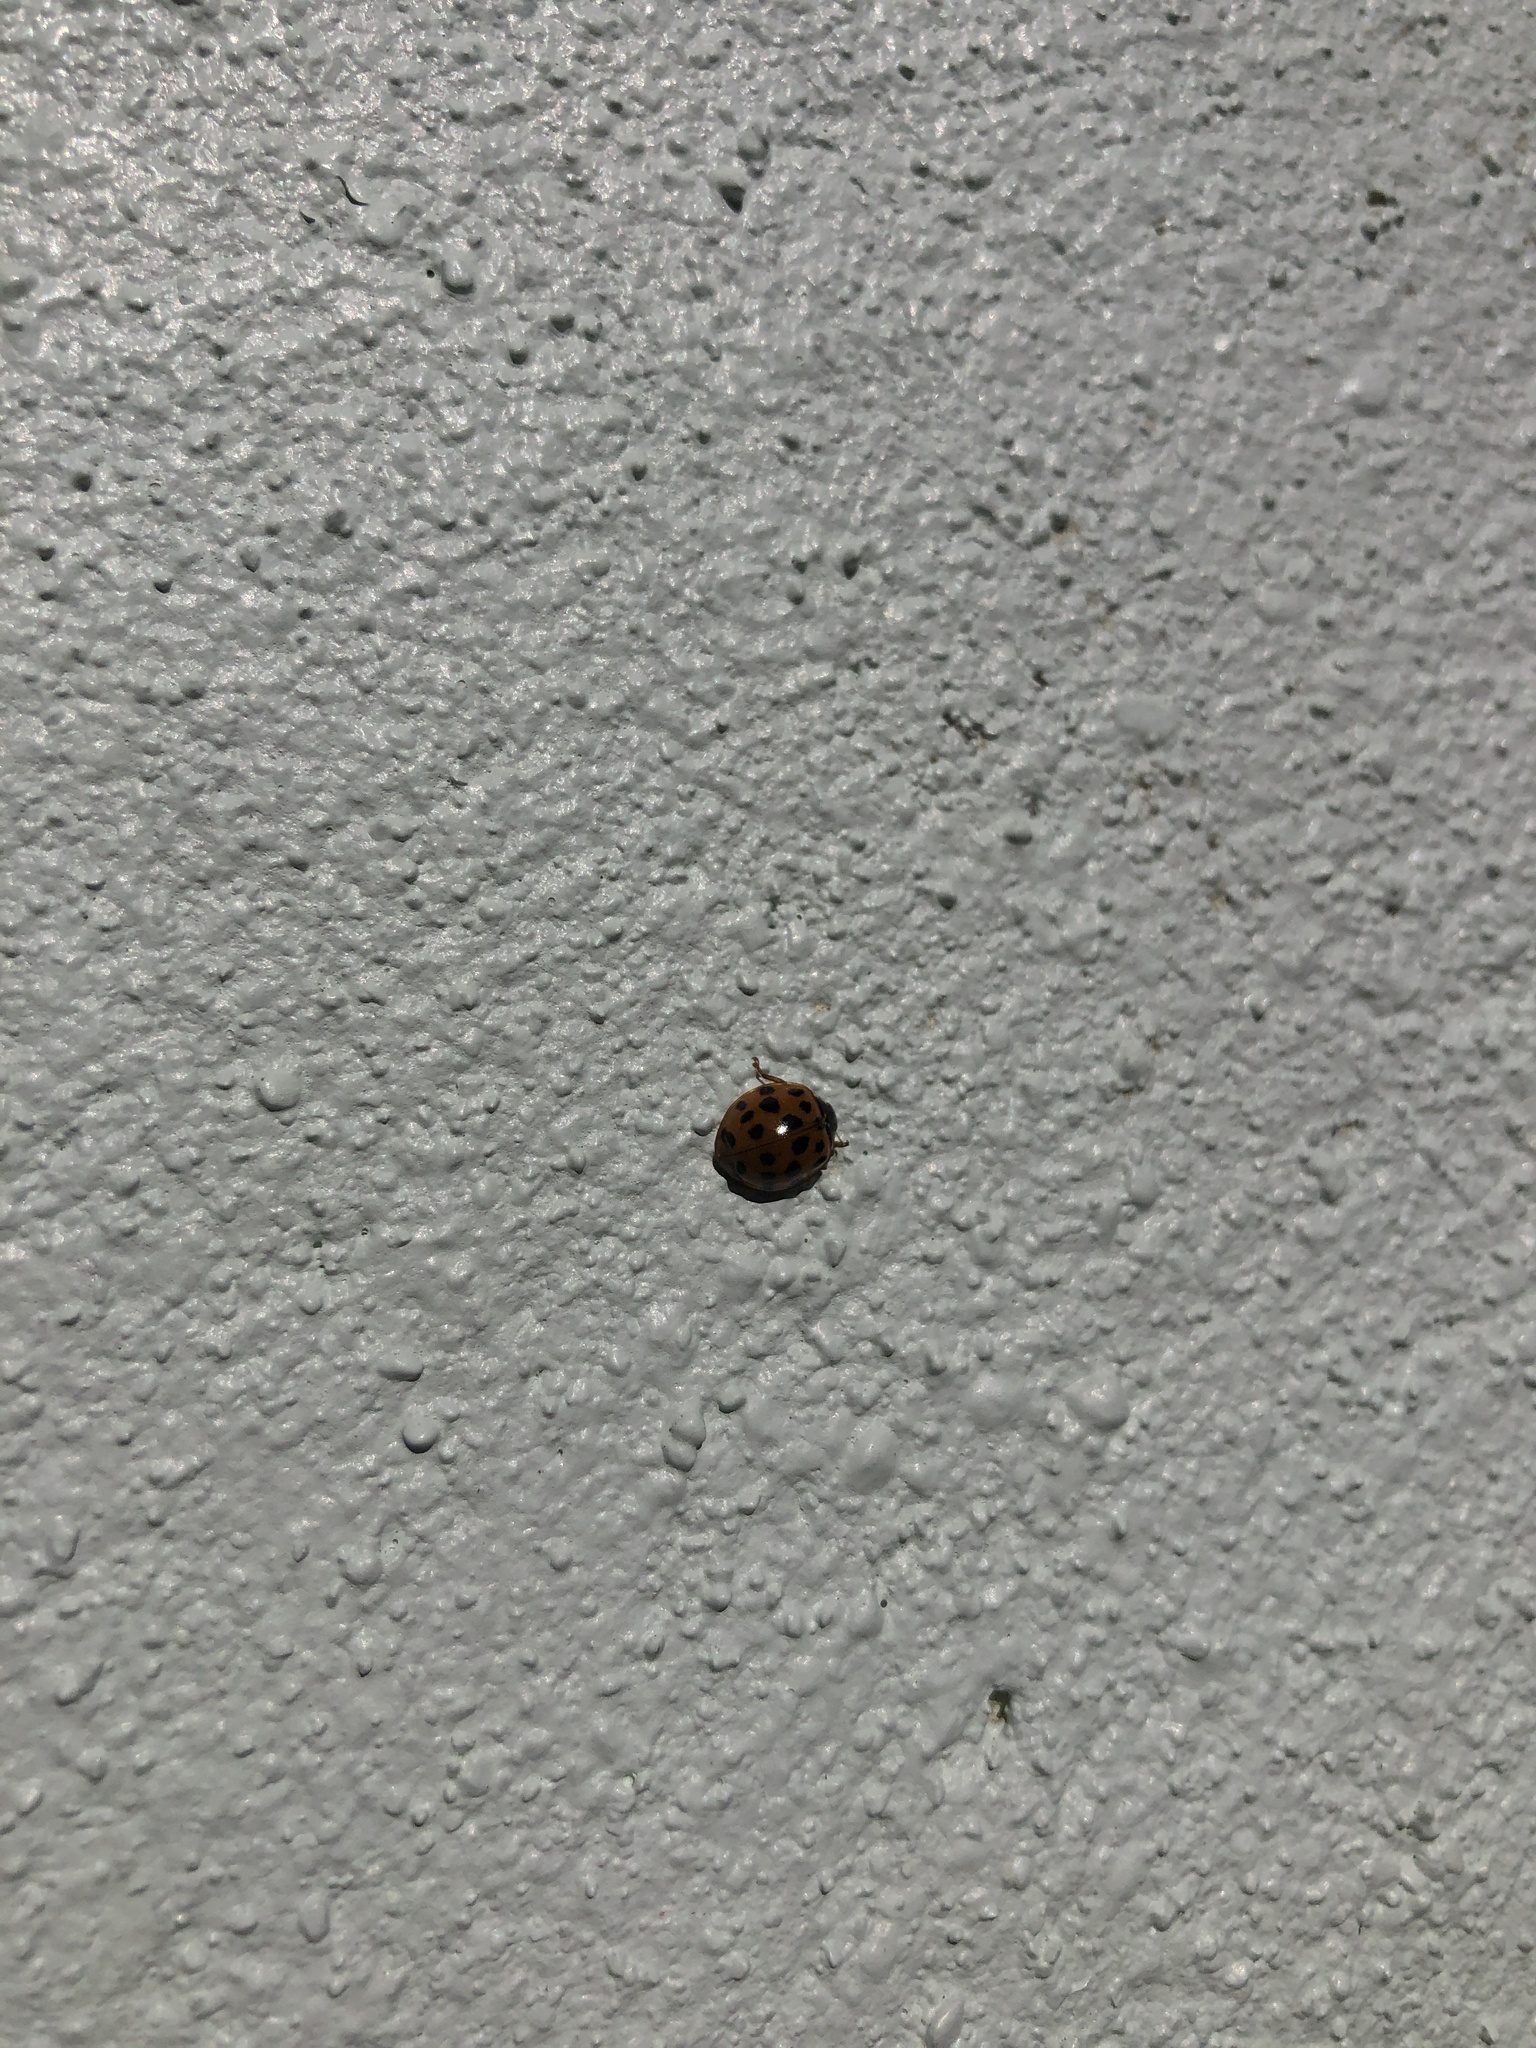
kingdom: Animalia
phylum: Arthropoda
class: Insecta
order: Coleoptera
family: Coccinellidae
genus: Harmonia
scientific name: Harmonia axyridis
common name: Harlequin ladybird
